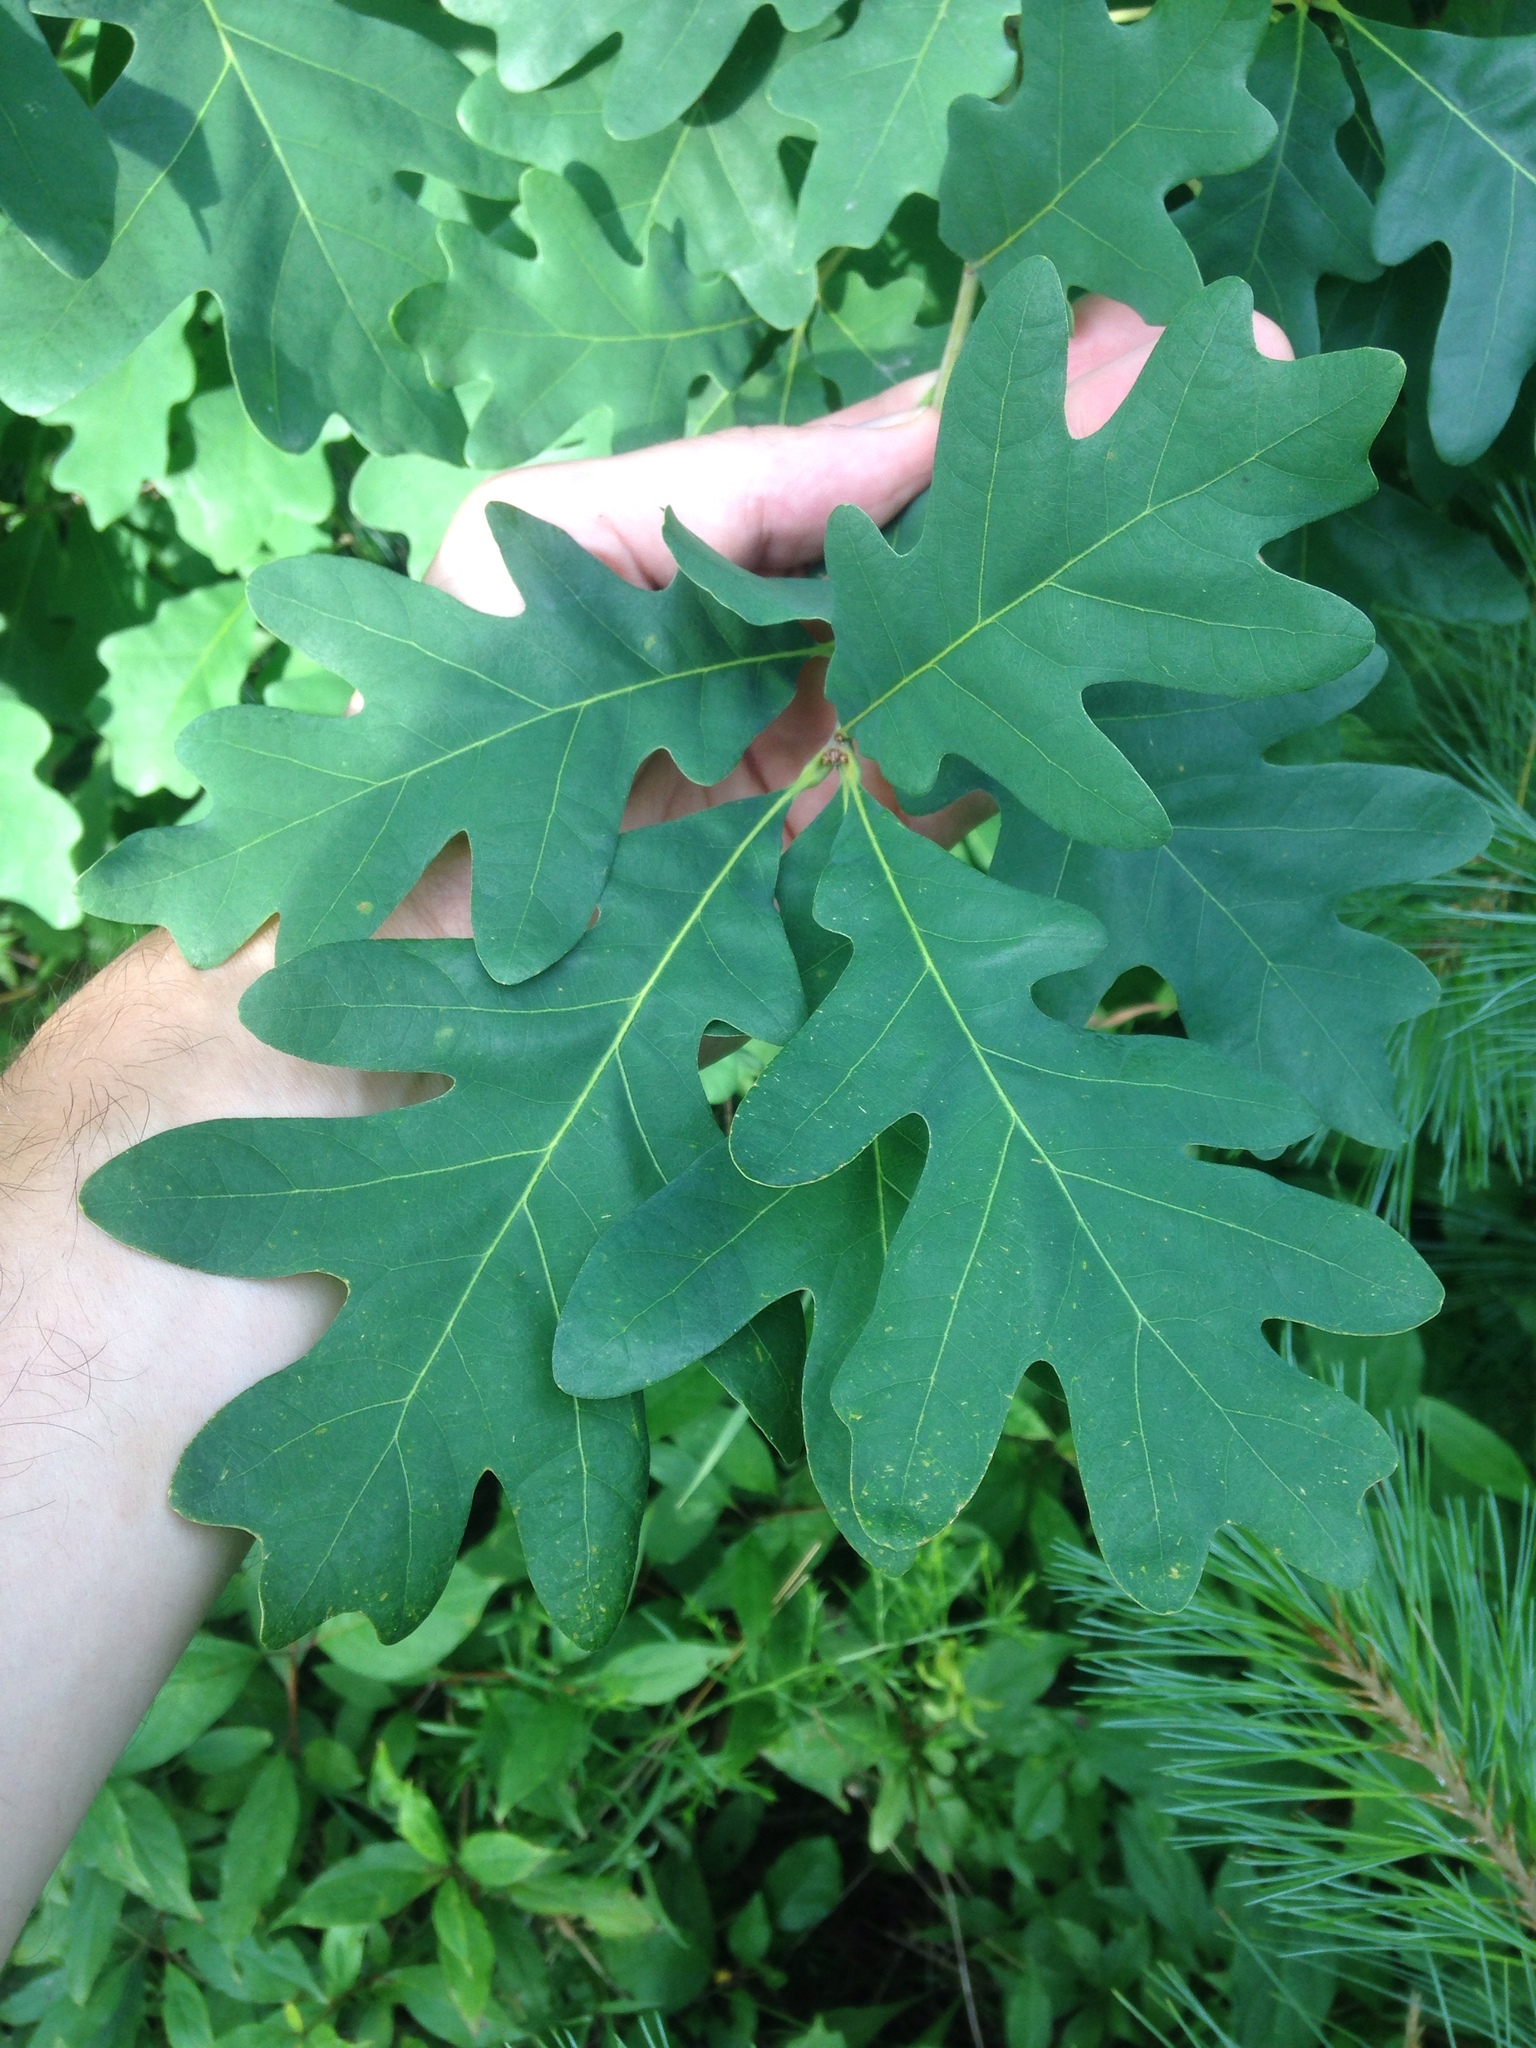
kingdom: Plantae
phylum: Tracheophyta
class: Magnoliopsida
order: Fagales
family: Fagaceae
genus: Quercus
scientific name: Quercus alba
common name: White oak
